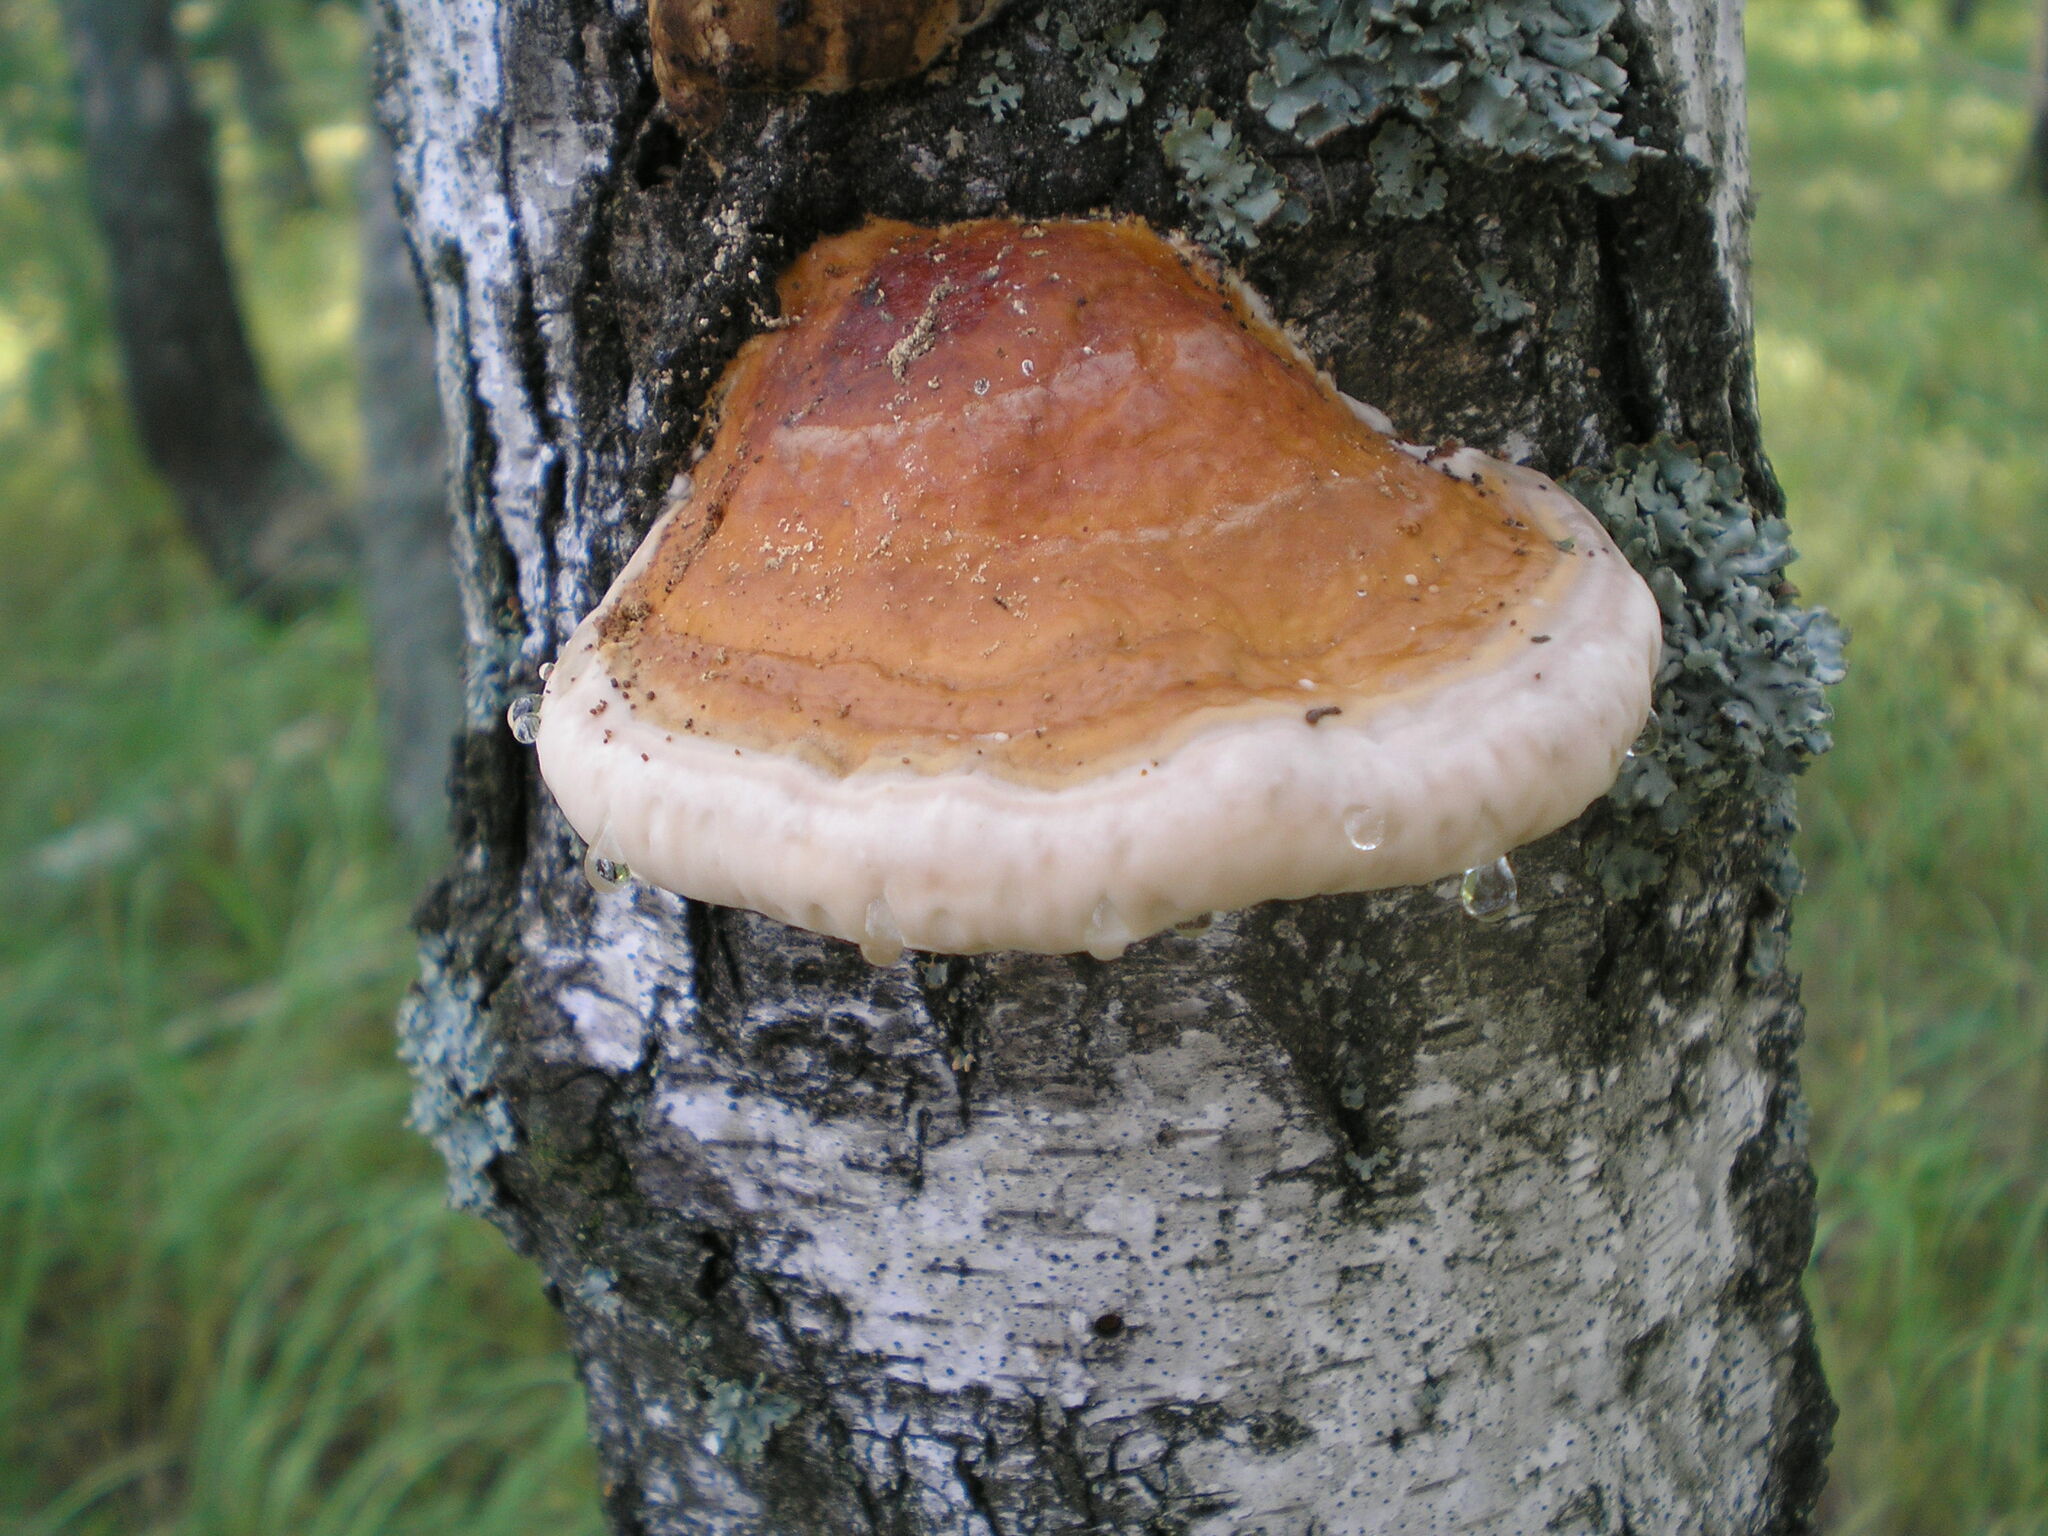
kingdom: Fungi
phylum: Basidiomycota
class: Agaricomycetes
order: Polyporales
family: Fomitopsidaceae
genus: Fomitopsis
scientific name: Fomitopsis pinicola
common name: Red-belted bracket
